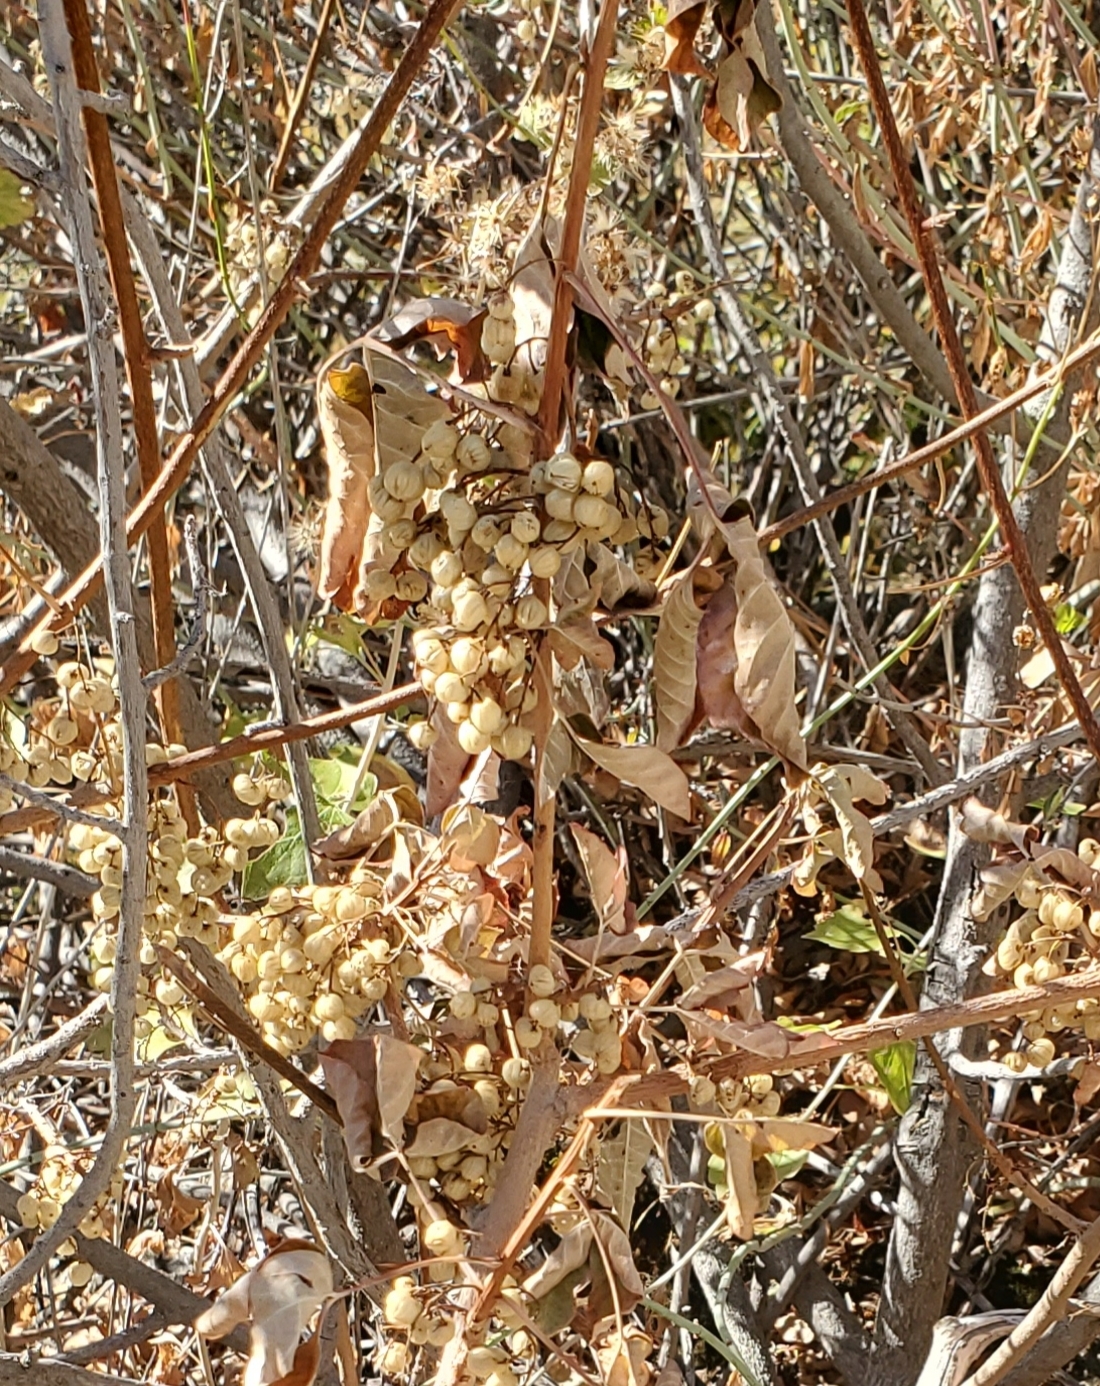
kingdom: Plantae
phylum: Tracheophyta
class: Magnoliopsida
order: Sapindales
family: Anacardiaceae
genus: Toxicodendron
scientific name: Toxicodendron diversilobum
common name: Pacific poison-oak
